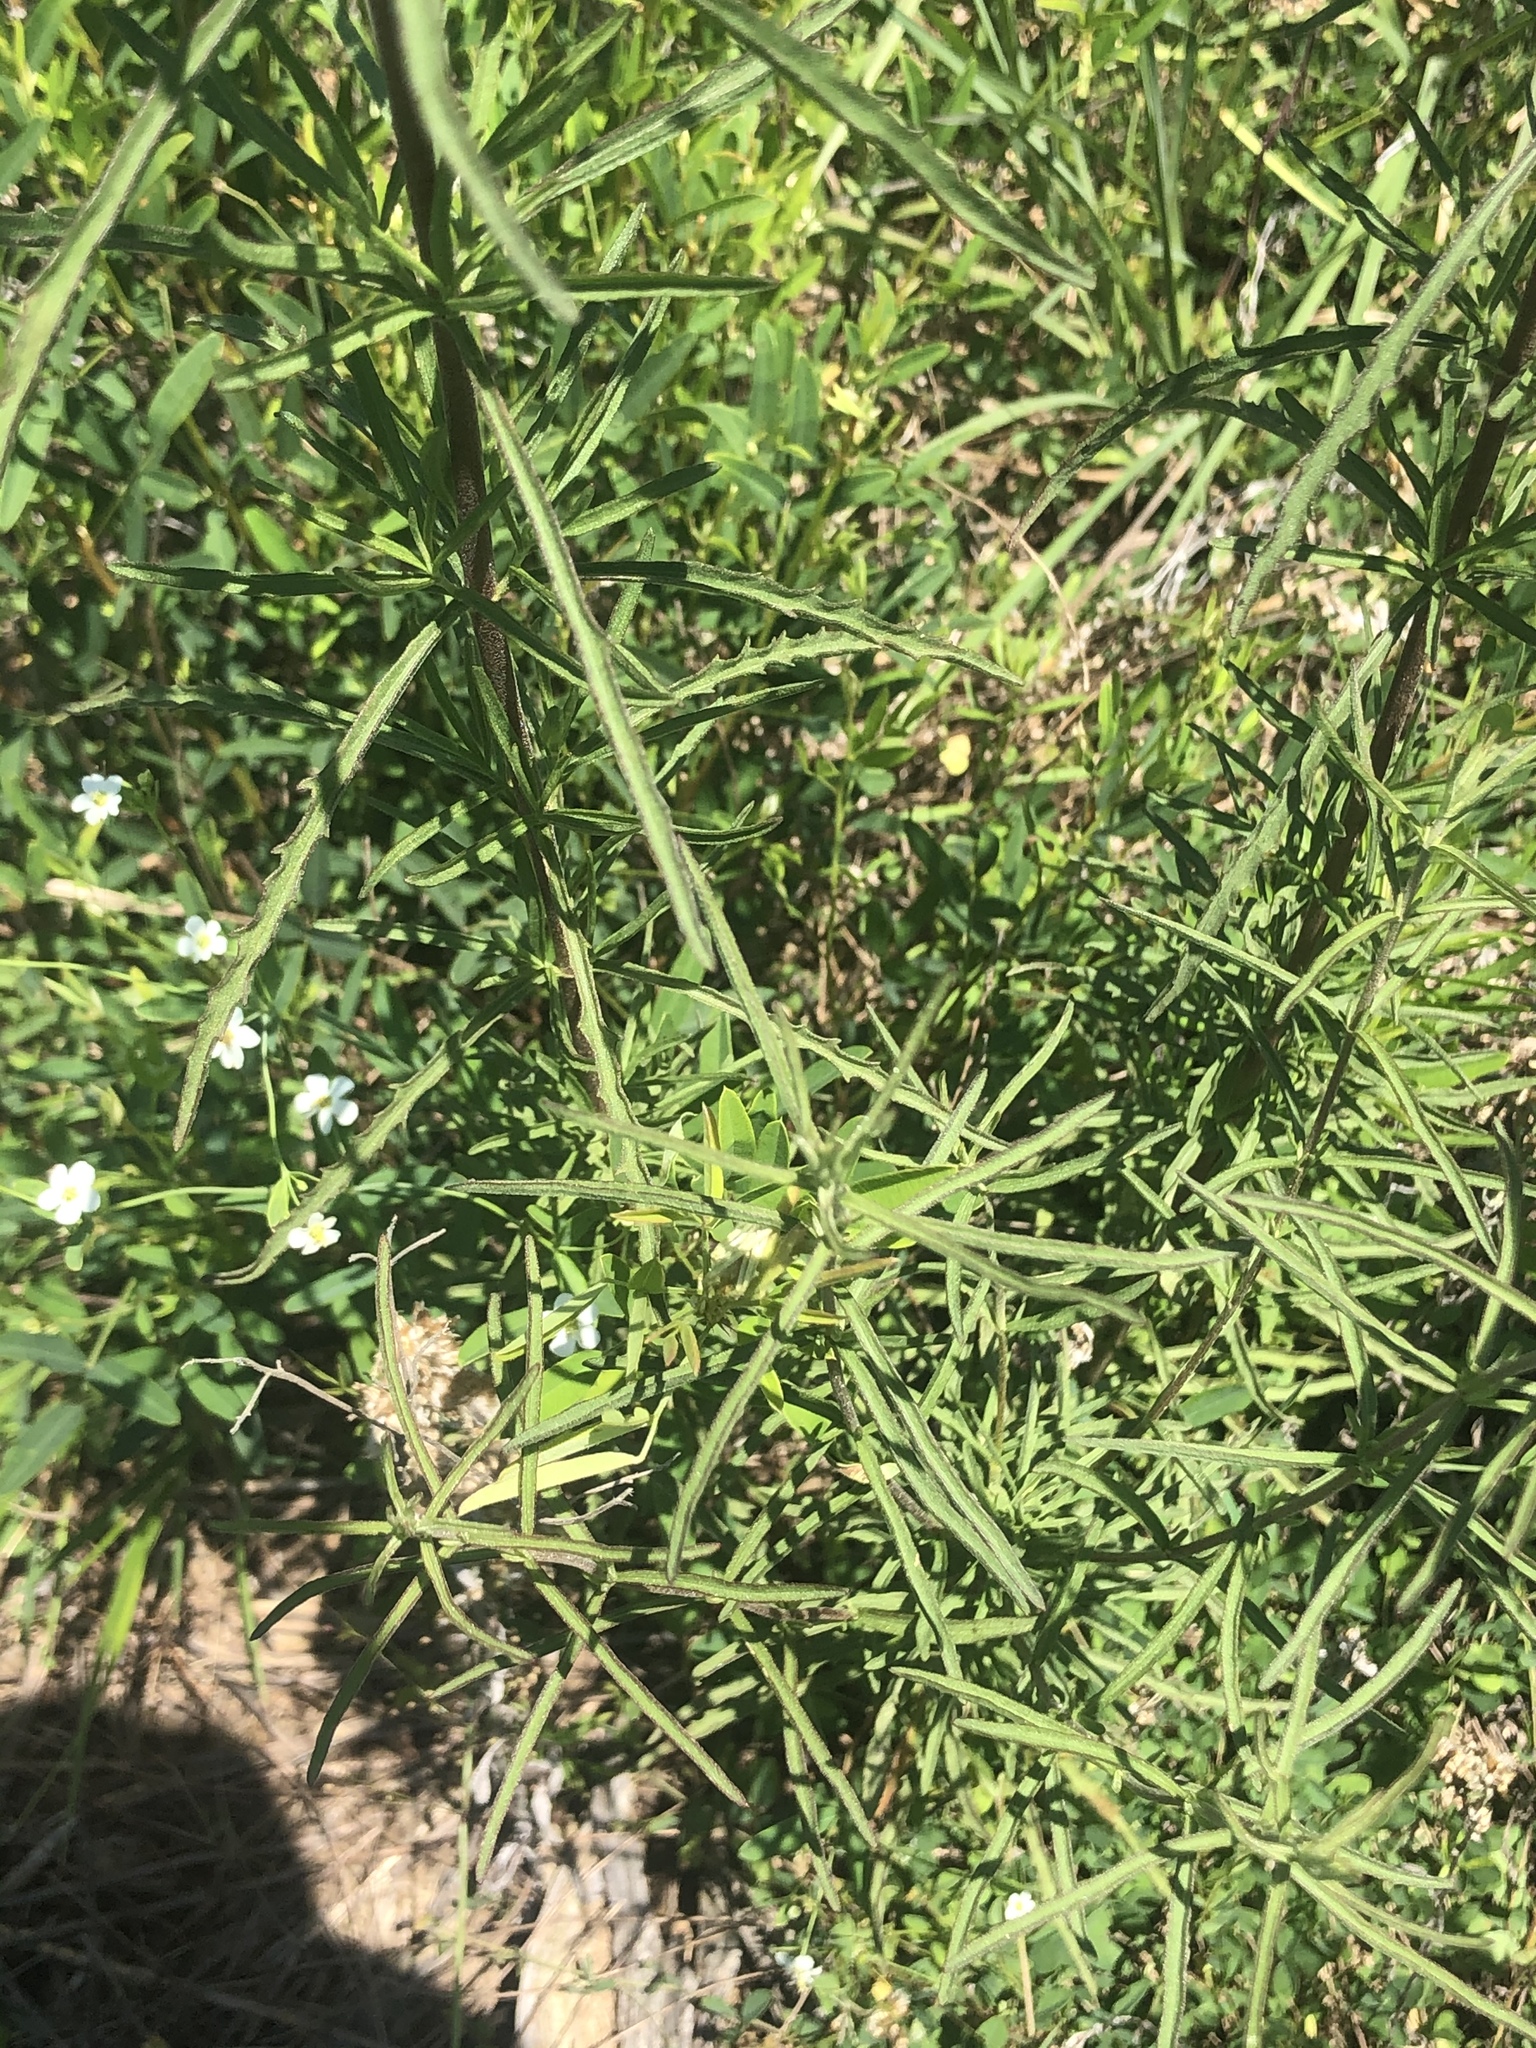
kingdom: Plantae
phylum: Tracheophyta
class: Magnoliopsida
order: Asterales
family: Asteraceae
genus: Eupatorium
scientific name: Eupatorium hyssopifolium
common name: Hyssop-leaf thoroughwort
